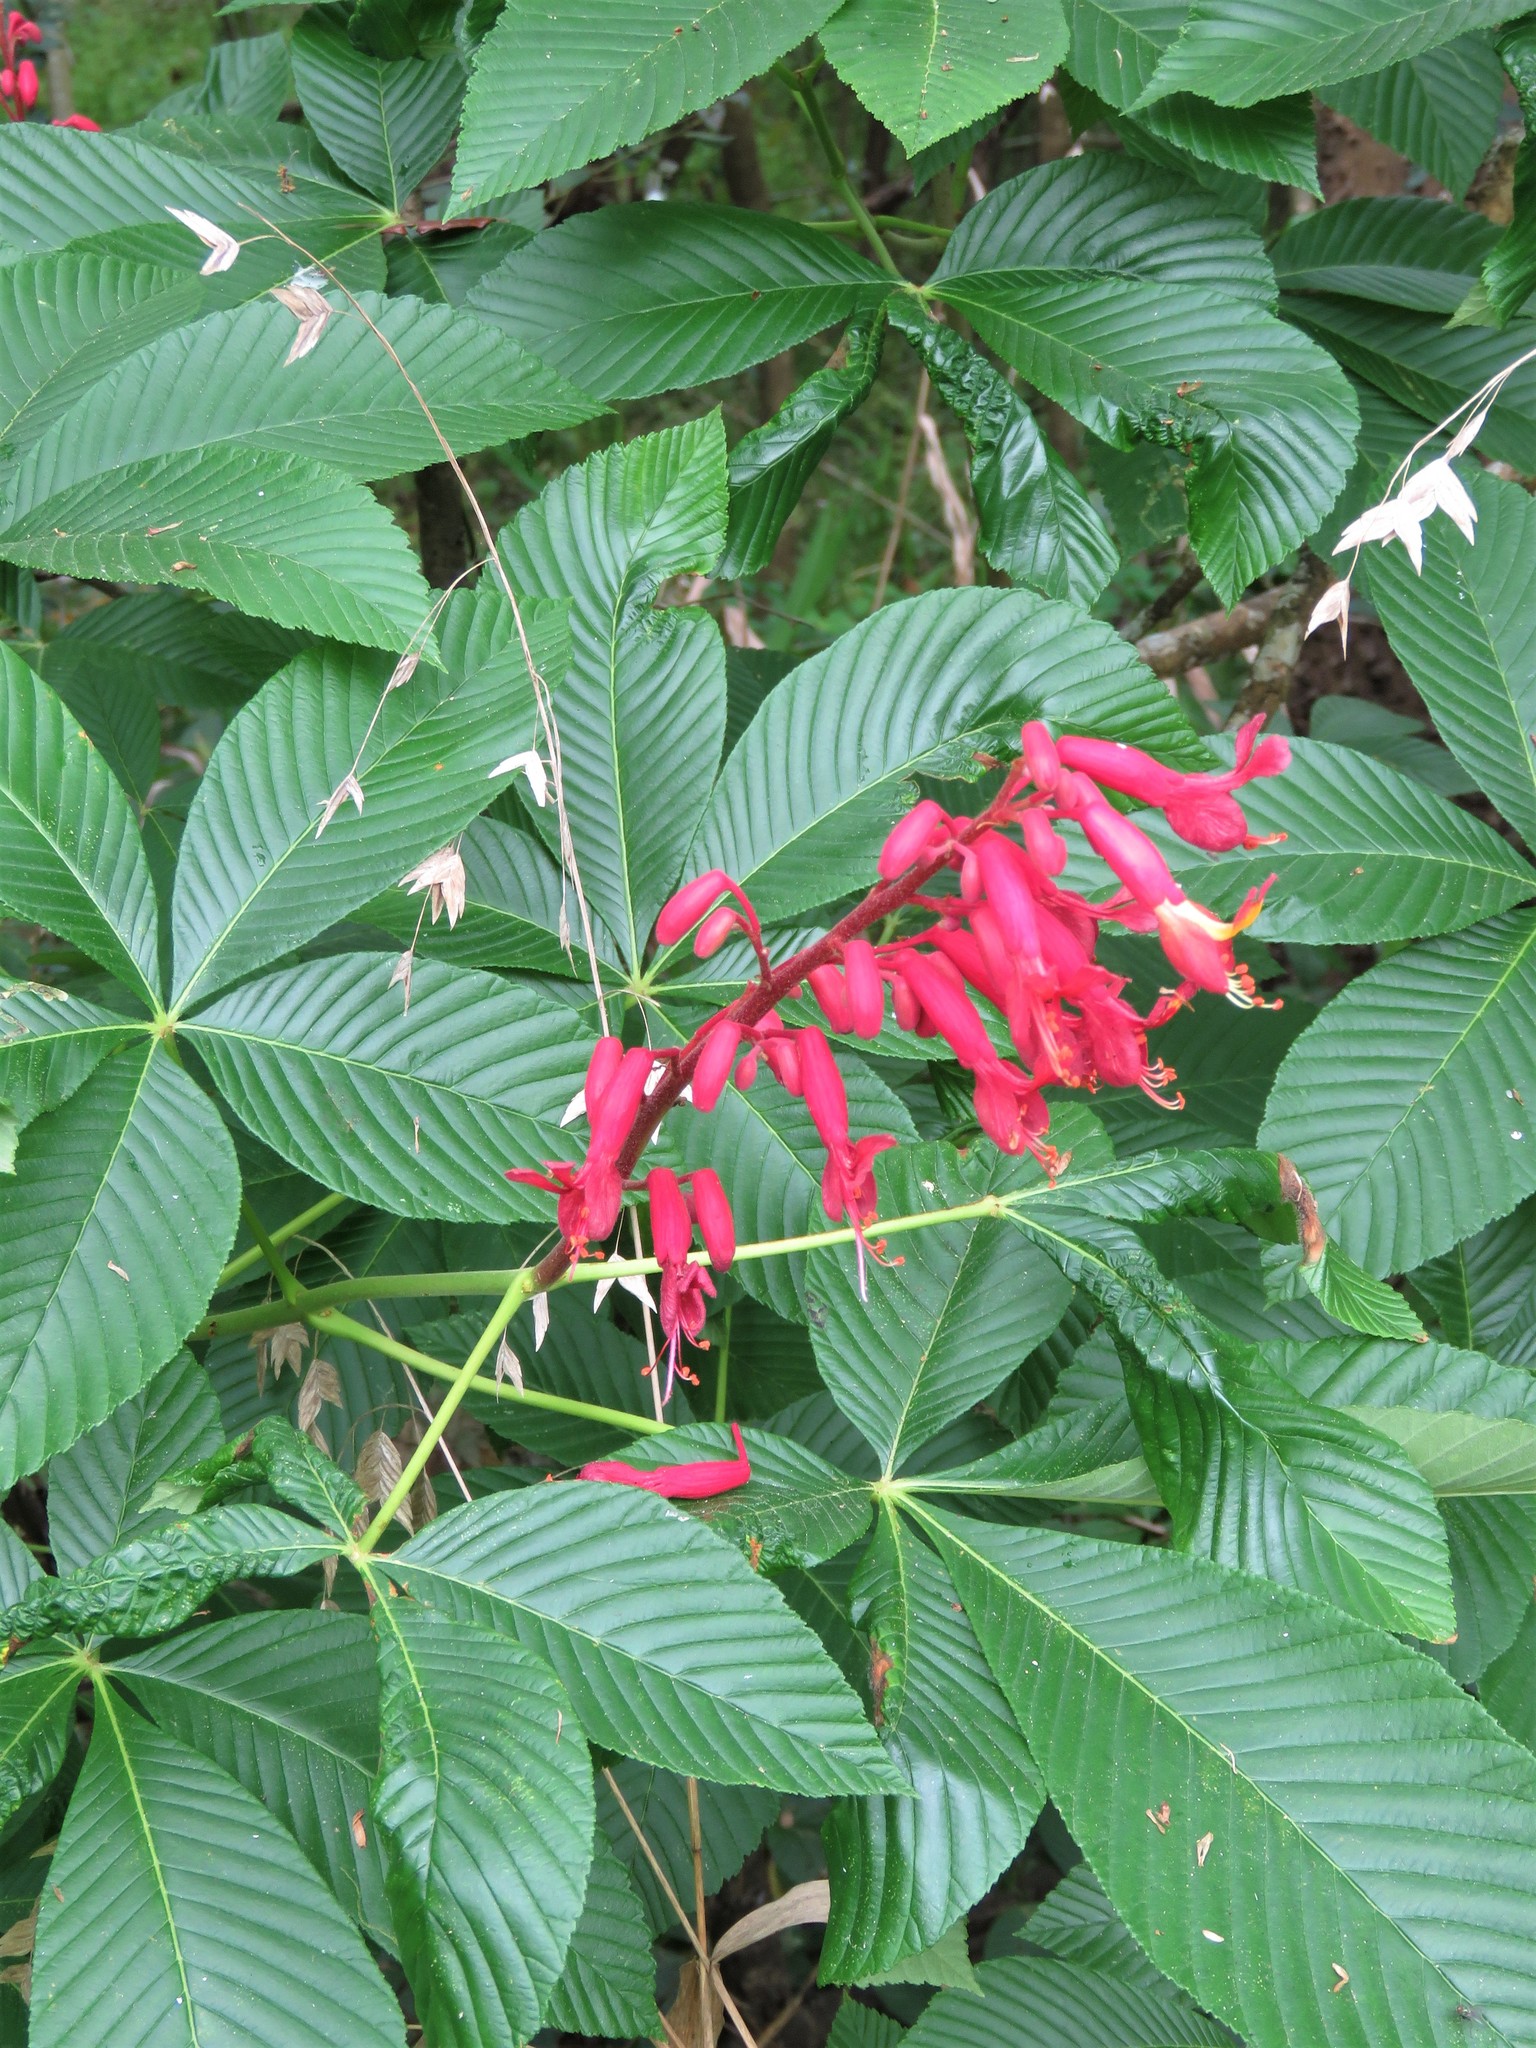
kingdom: Plantae
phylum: Tracheophyta
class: Magnoliopsida
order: Sapindales
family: Sapindaceae
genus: Aesculus
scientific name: Aesculus pavia
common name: Red buckeye
